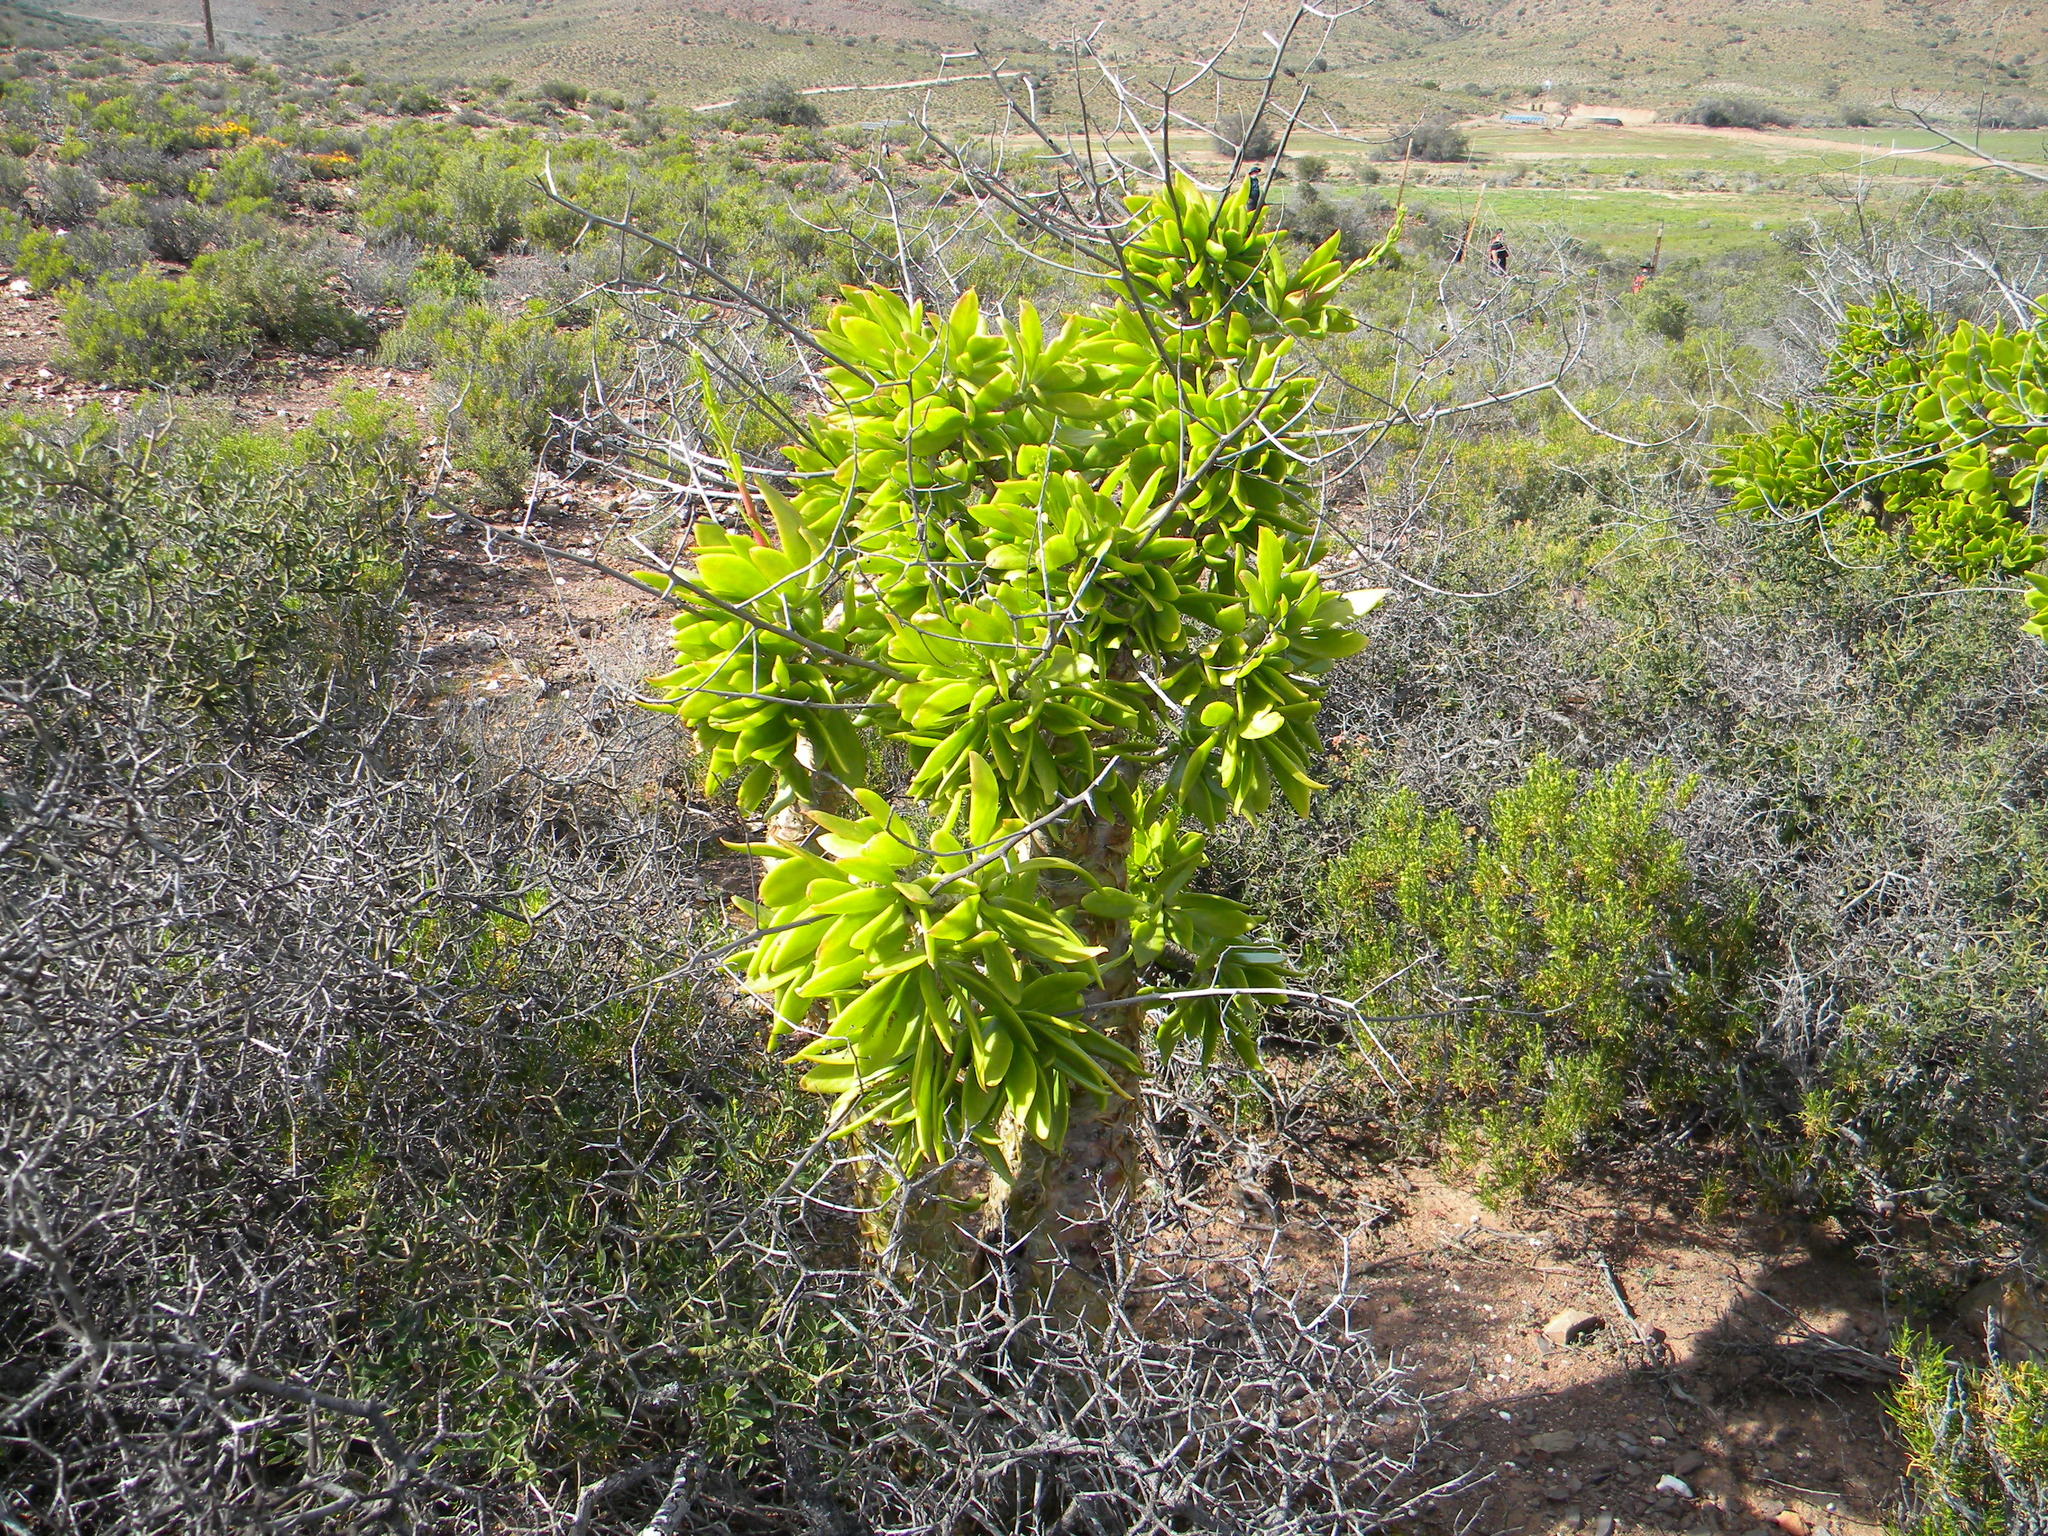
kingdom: Plantae
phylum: Tracheophyta
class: Magnoliopsida
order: Saxifragales
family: Crassulaceae
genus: Tylecodon
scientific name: Tylecodon paniculatus
